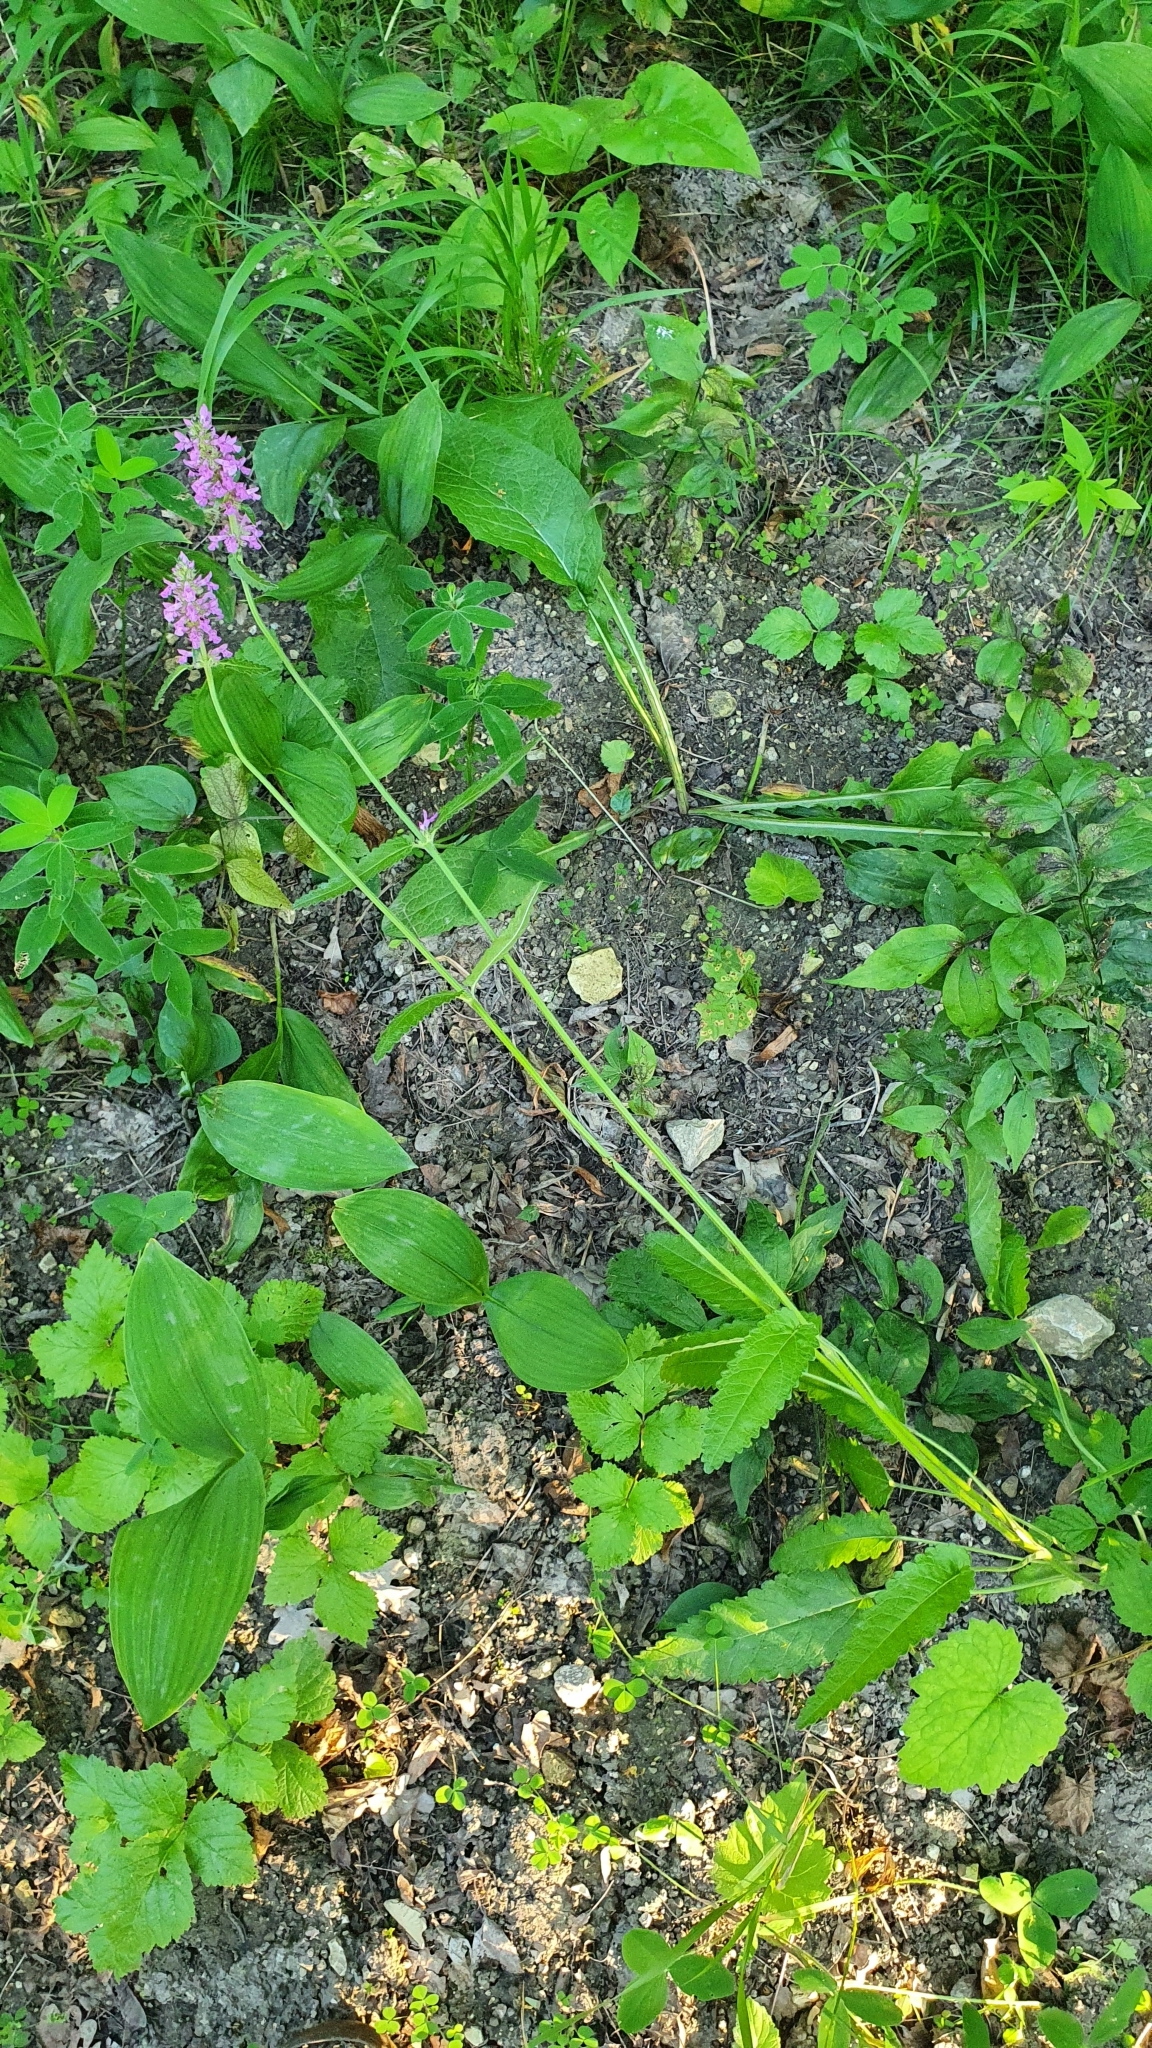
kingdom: Plantae
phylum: Tracheophyta
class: Magnoliopsida
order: Lamiales
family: Lamiaceae
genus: Betonica
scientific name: Betonica officinalis
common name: Bishop's-wort
